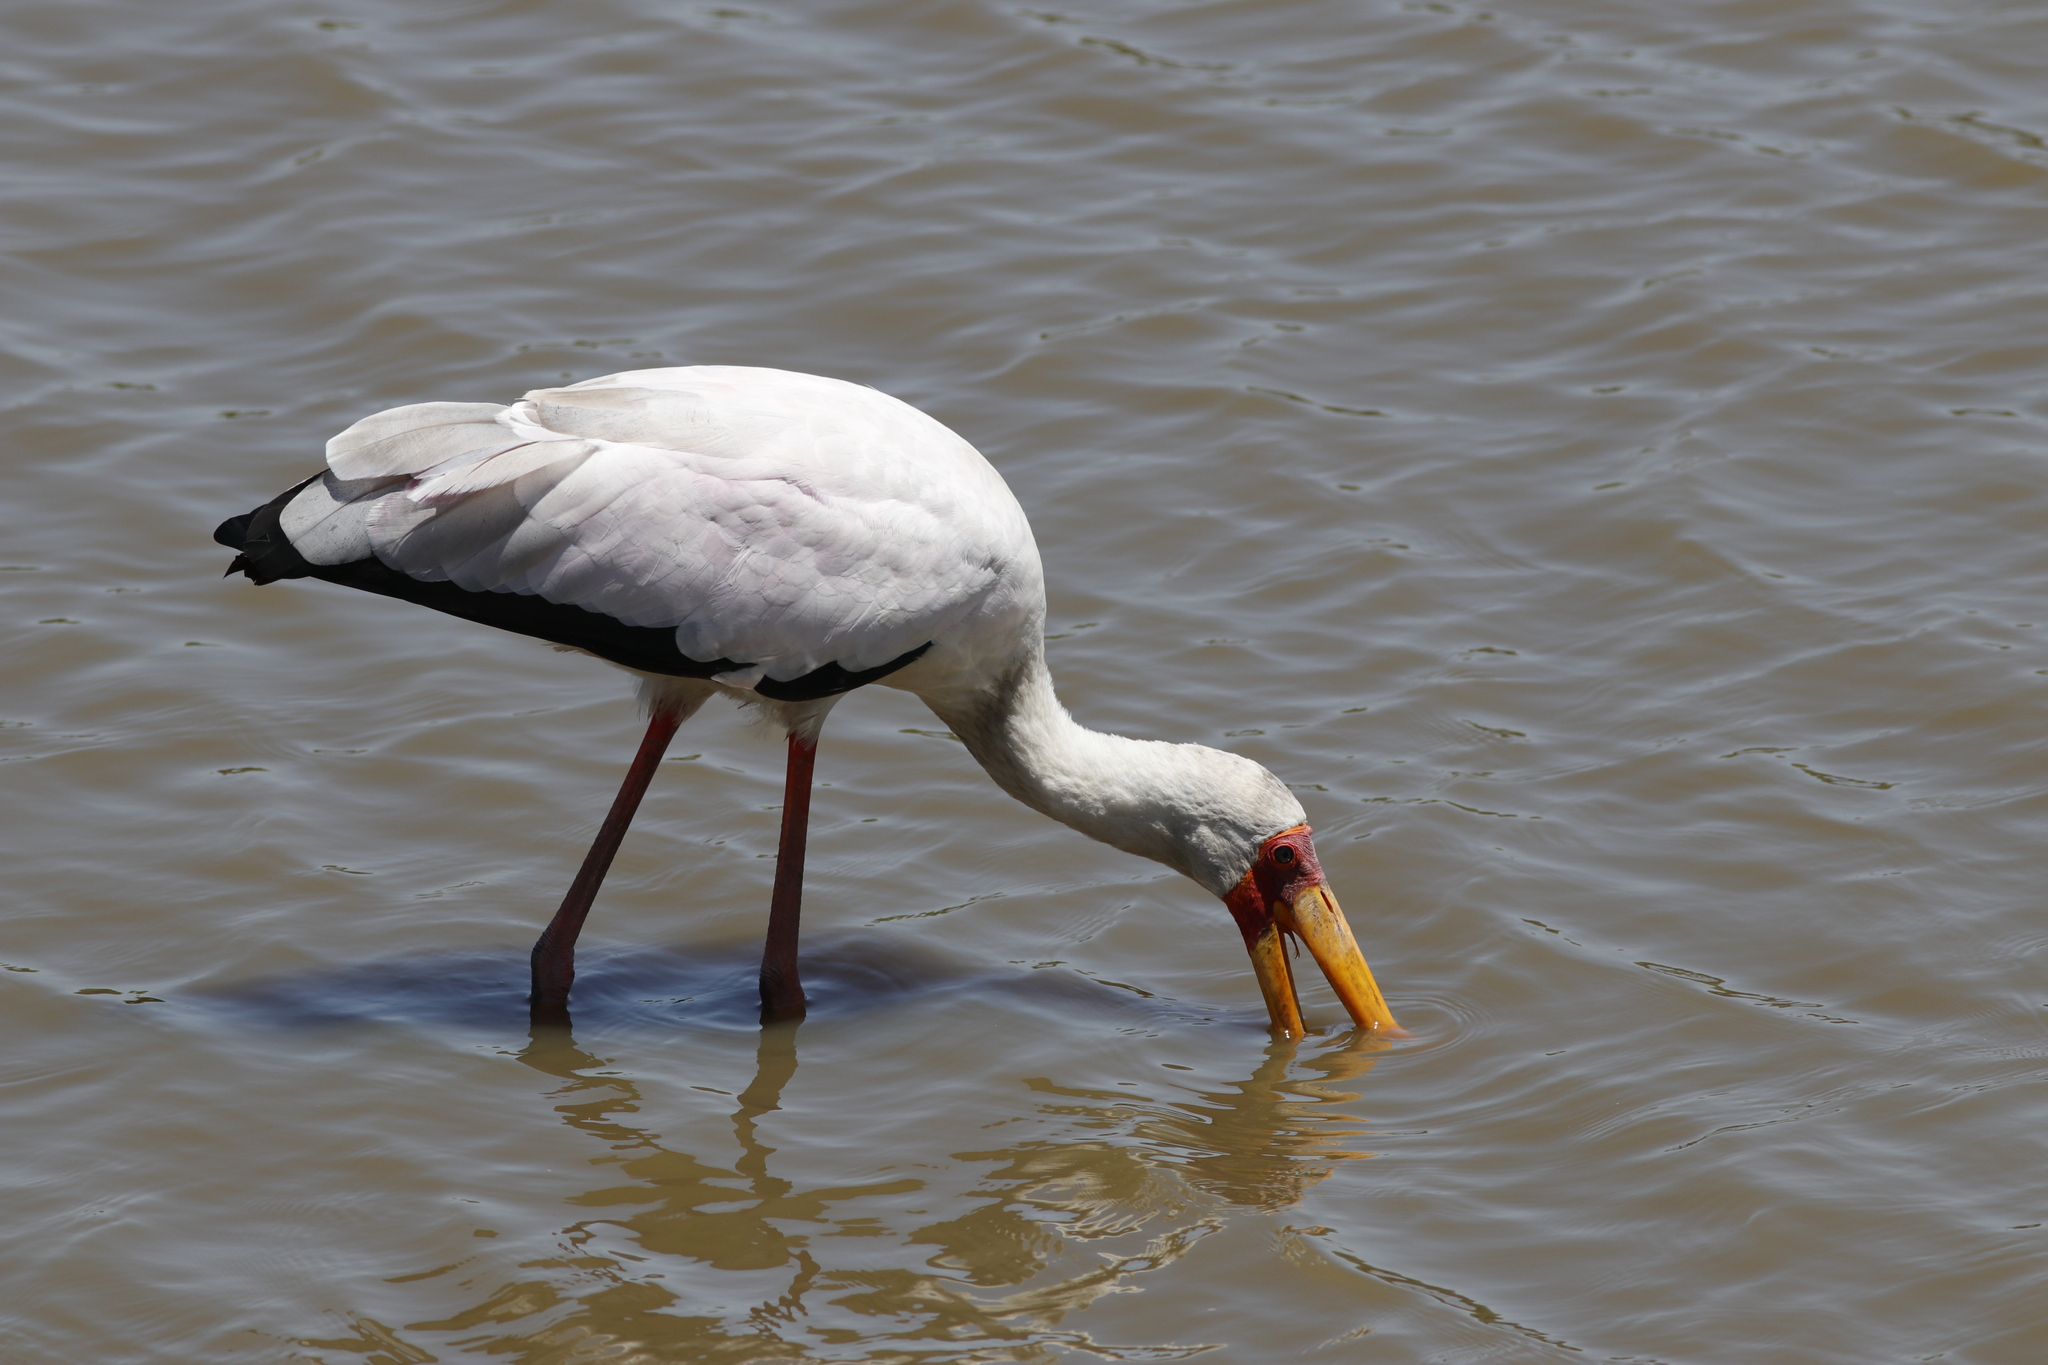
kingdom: Animalia
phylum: Chordata
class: Aves
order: Ciconiiformes
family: Ciconiidae
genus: Mycteria
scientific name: Mycteria ibis
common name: Yellow-billed stork
